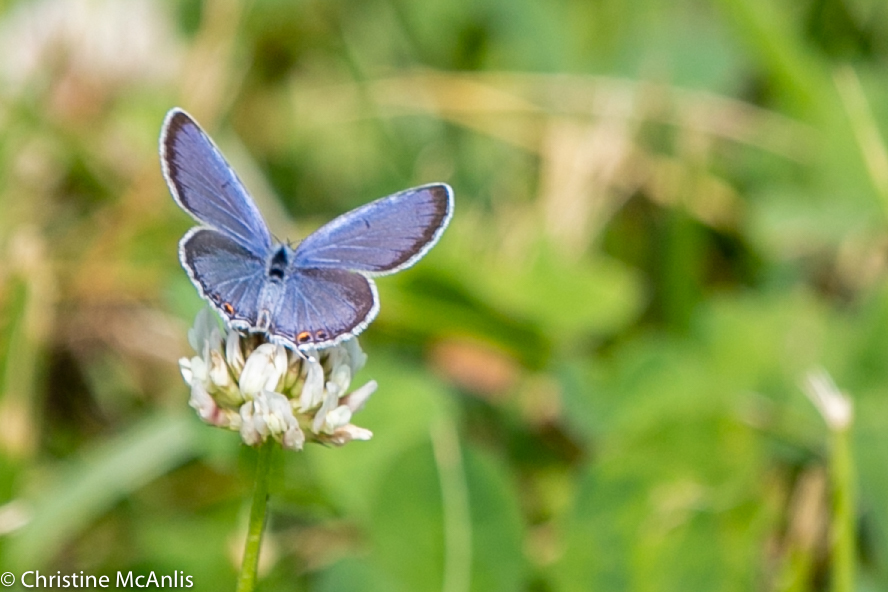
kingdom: Animalia
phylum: Arthropoda
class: Insecta
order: Lepidoptera
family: Lycaenidae
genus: Elkalyce
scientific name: Elkalyce comyntas
